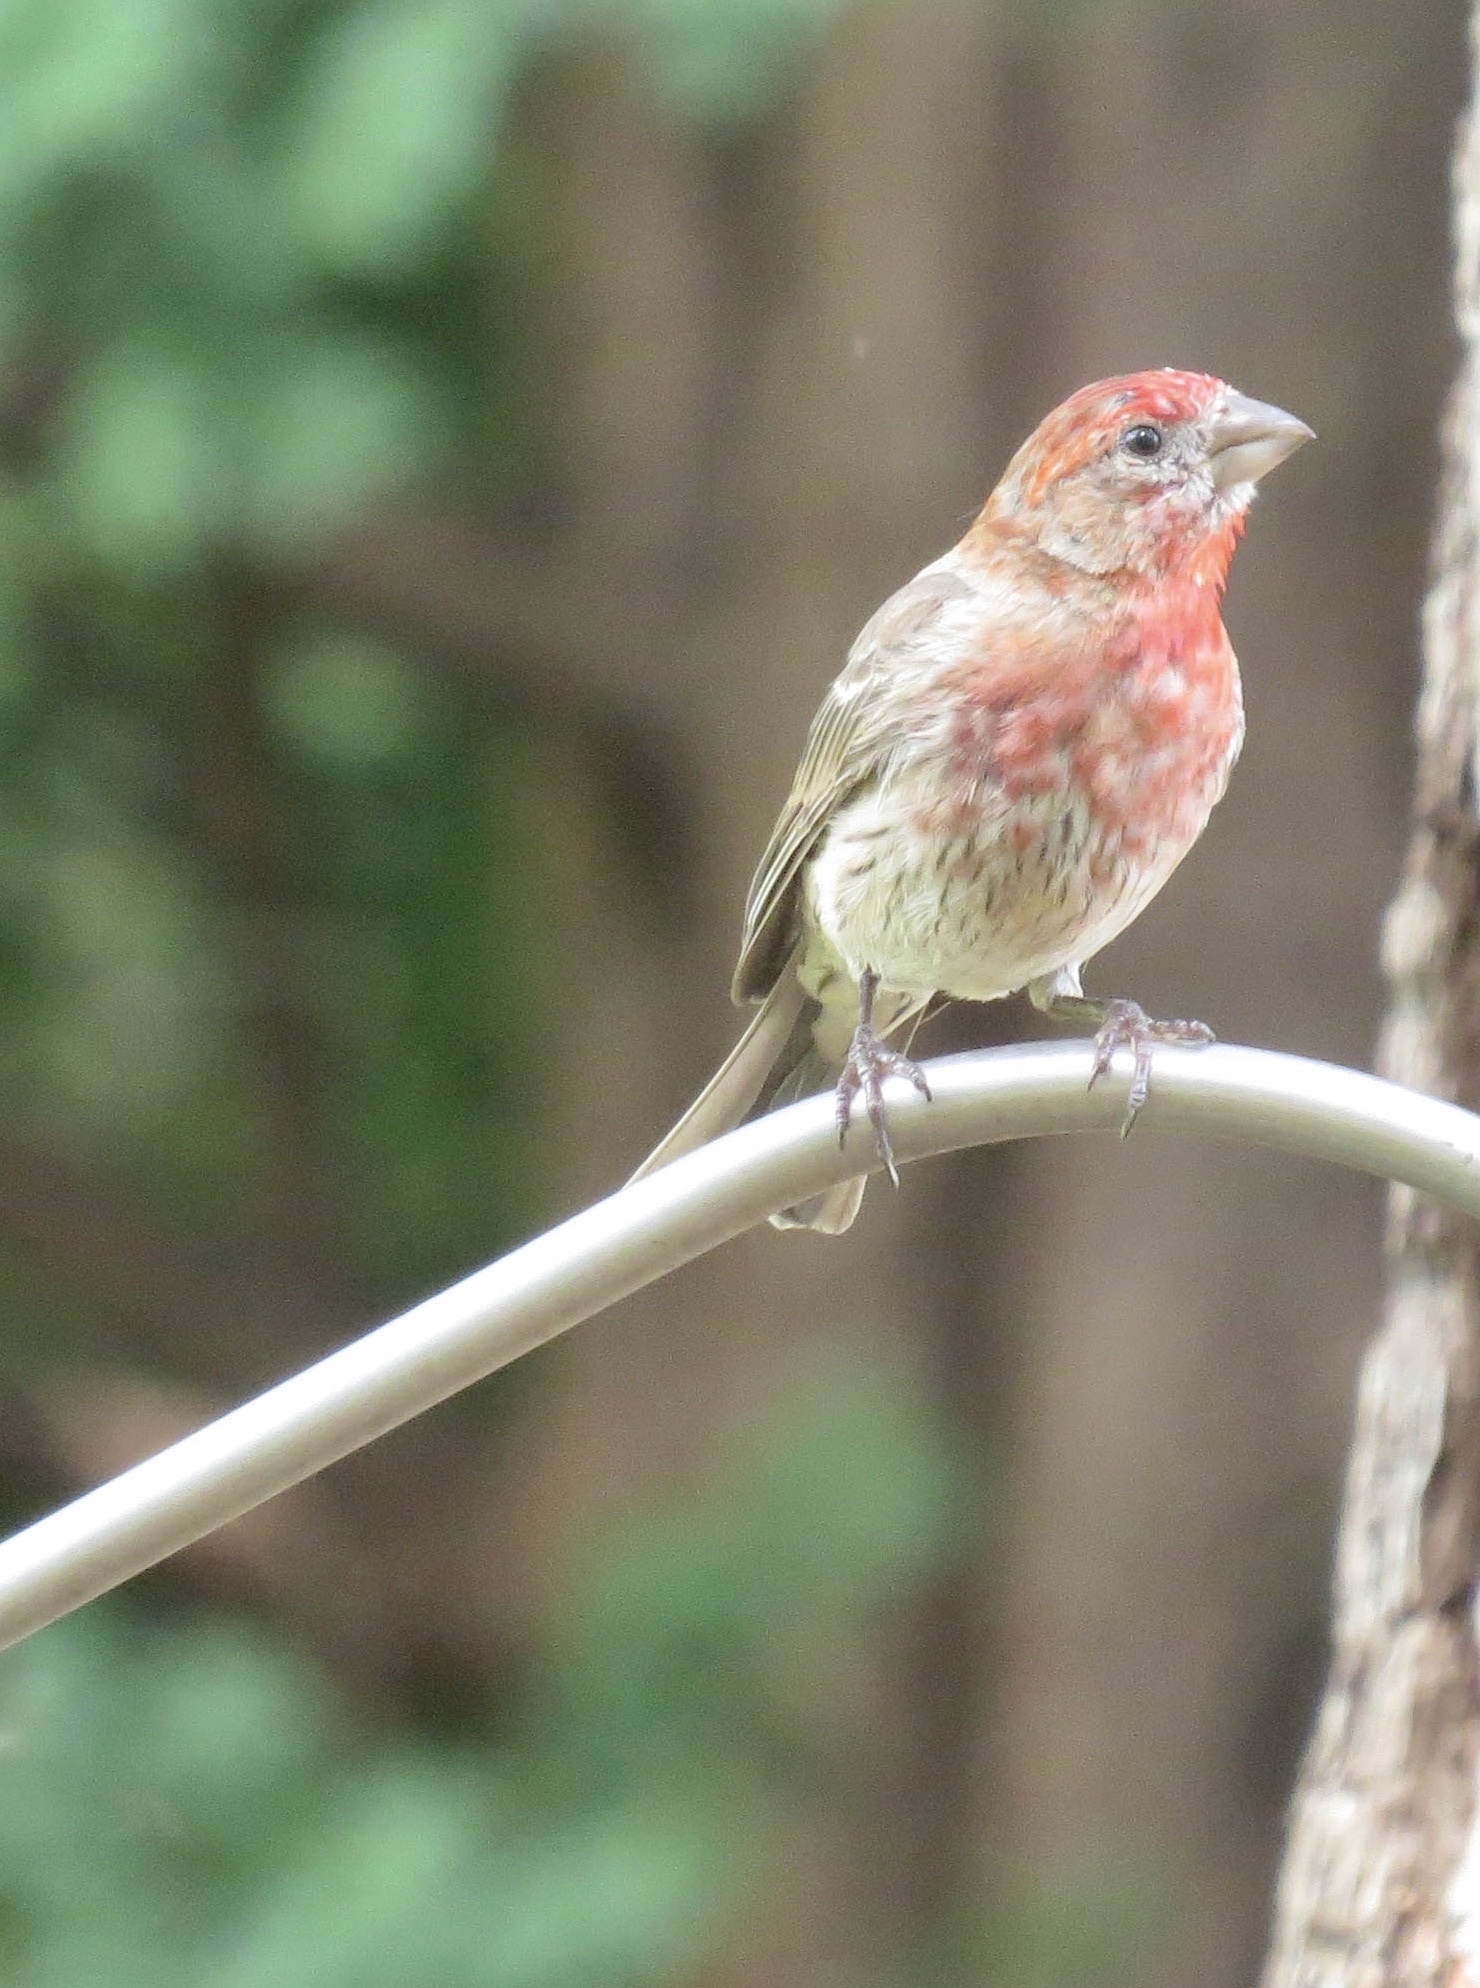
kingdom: Animalia
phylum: Chordata
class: Aves
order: Passeriformes
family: Fringillidae
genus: Haemorhous
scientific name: Haemorhous mexicanus
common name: House finch
